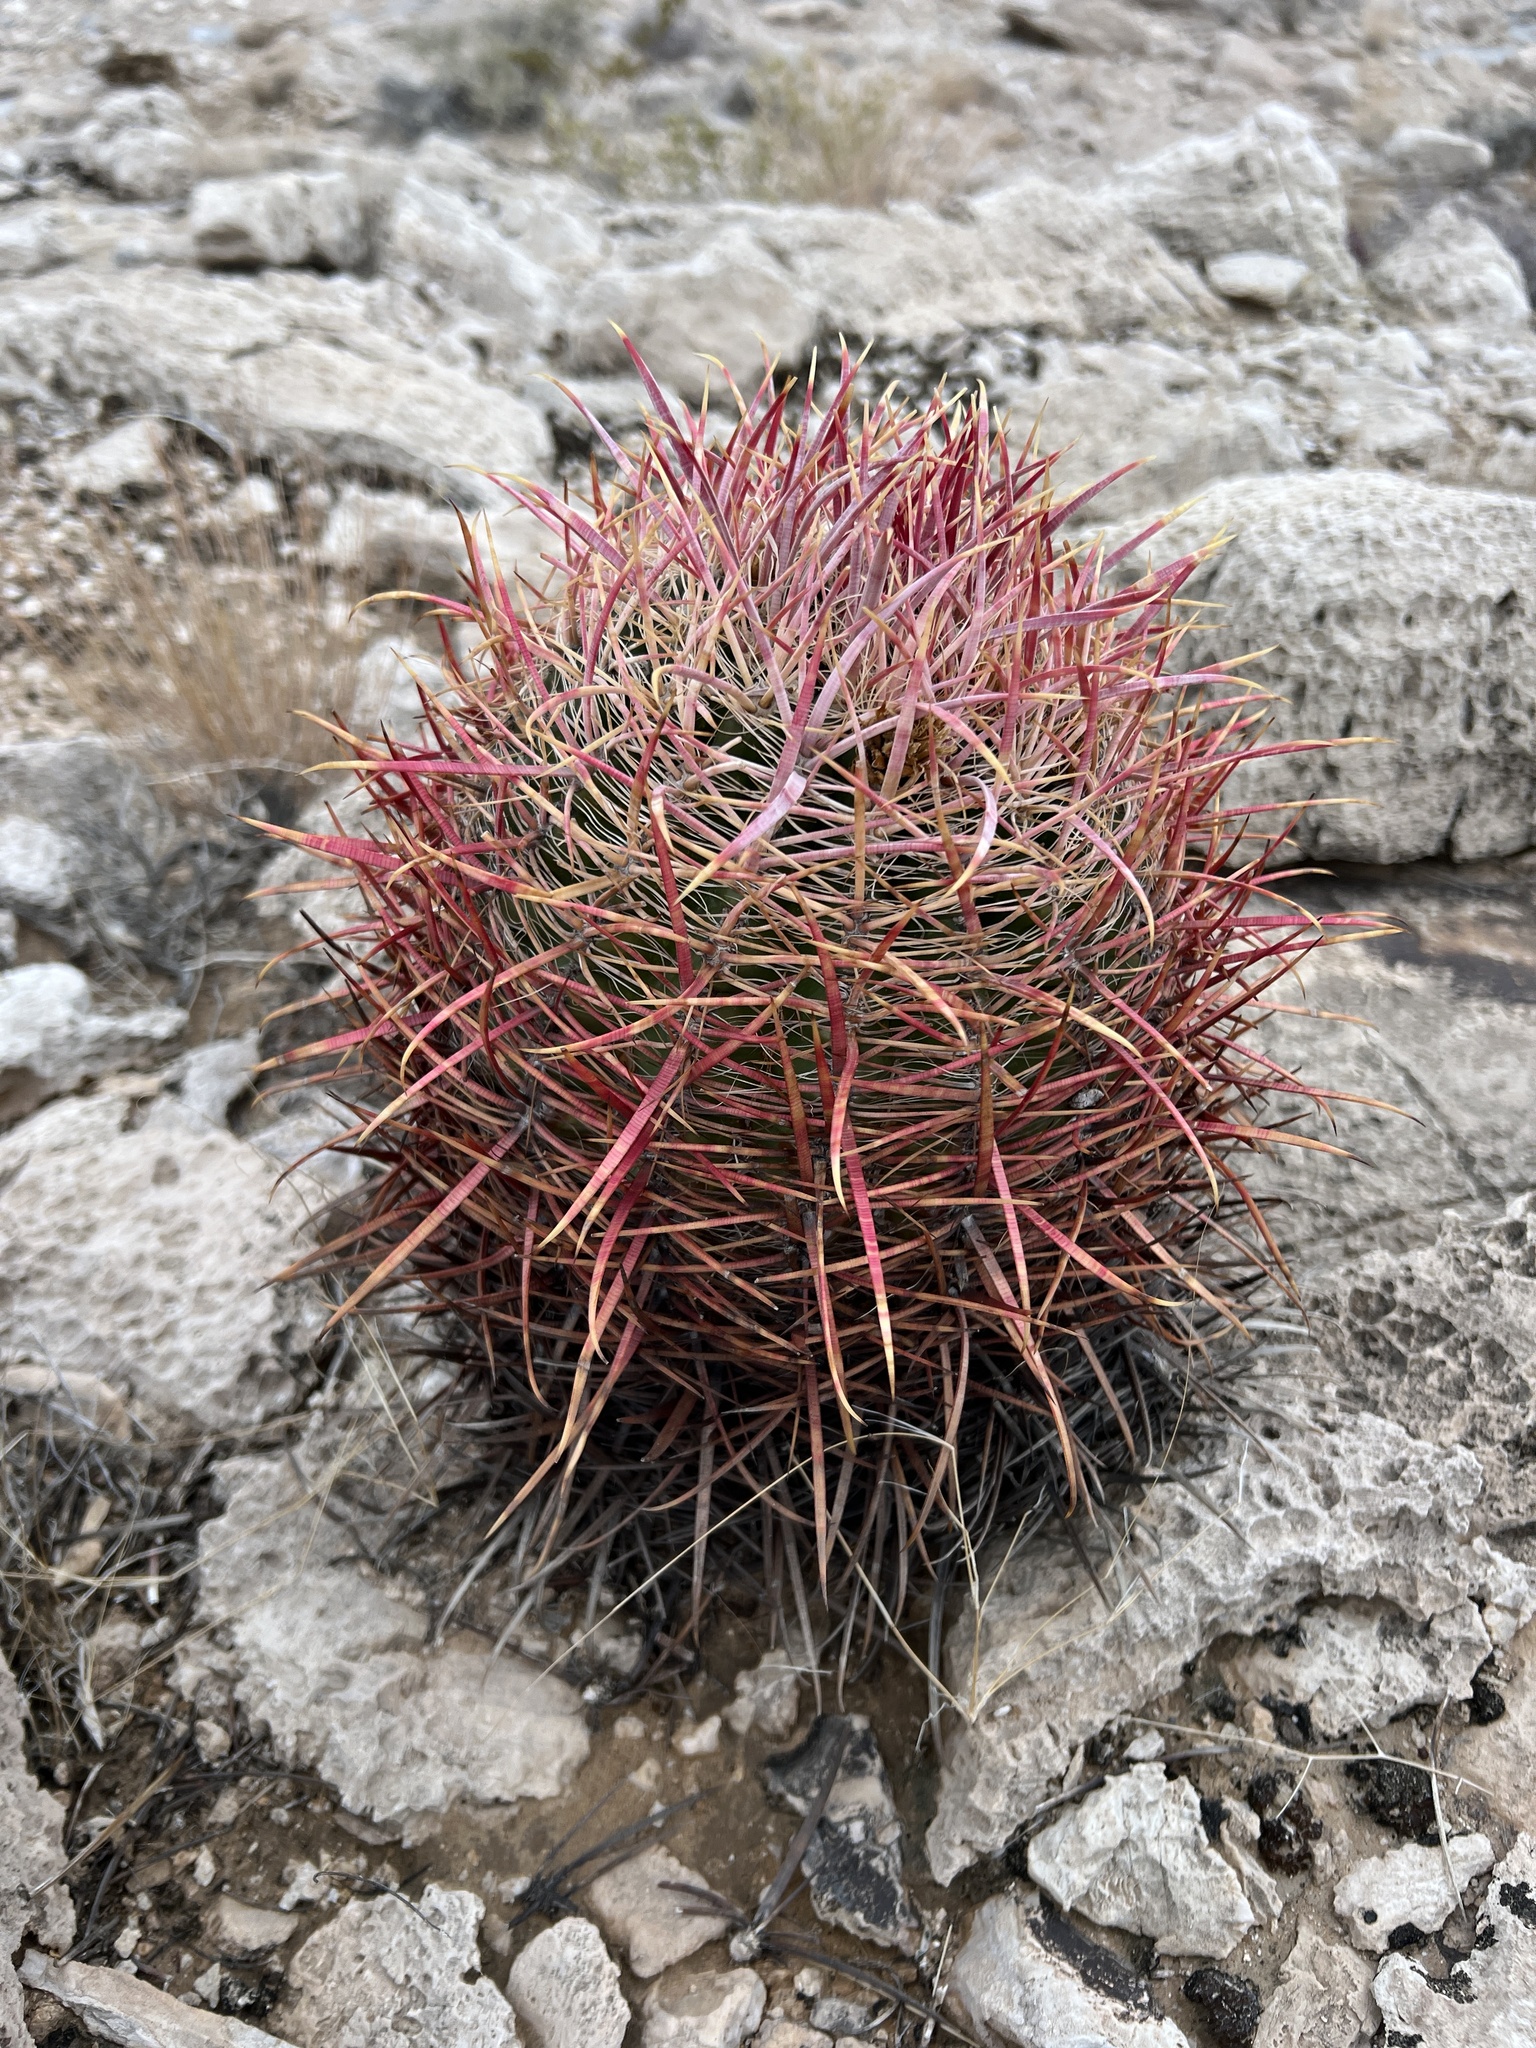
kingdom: Plantae
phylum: Tracheophyta
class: Magnoliopsida
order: Caryophyllales
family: Cactaceae
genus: Ferocactus
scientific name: Ferocactus cylindraceus
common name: California barrel cactus
